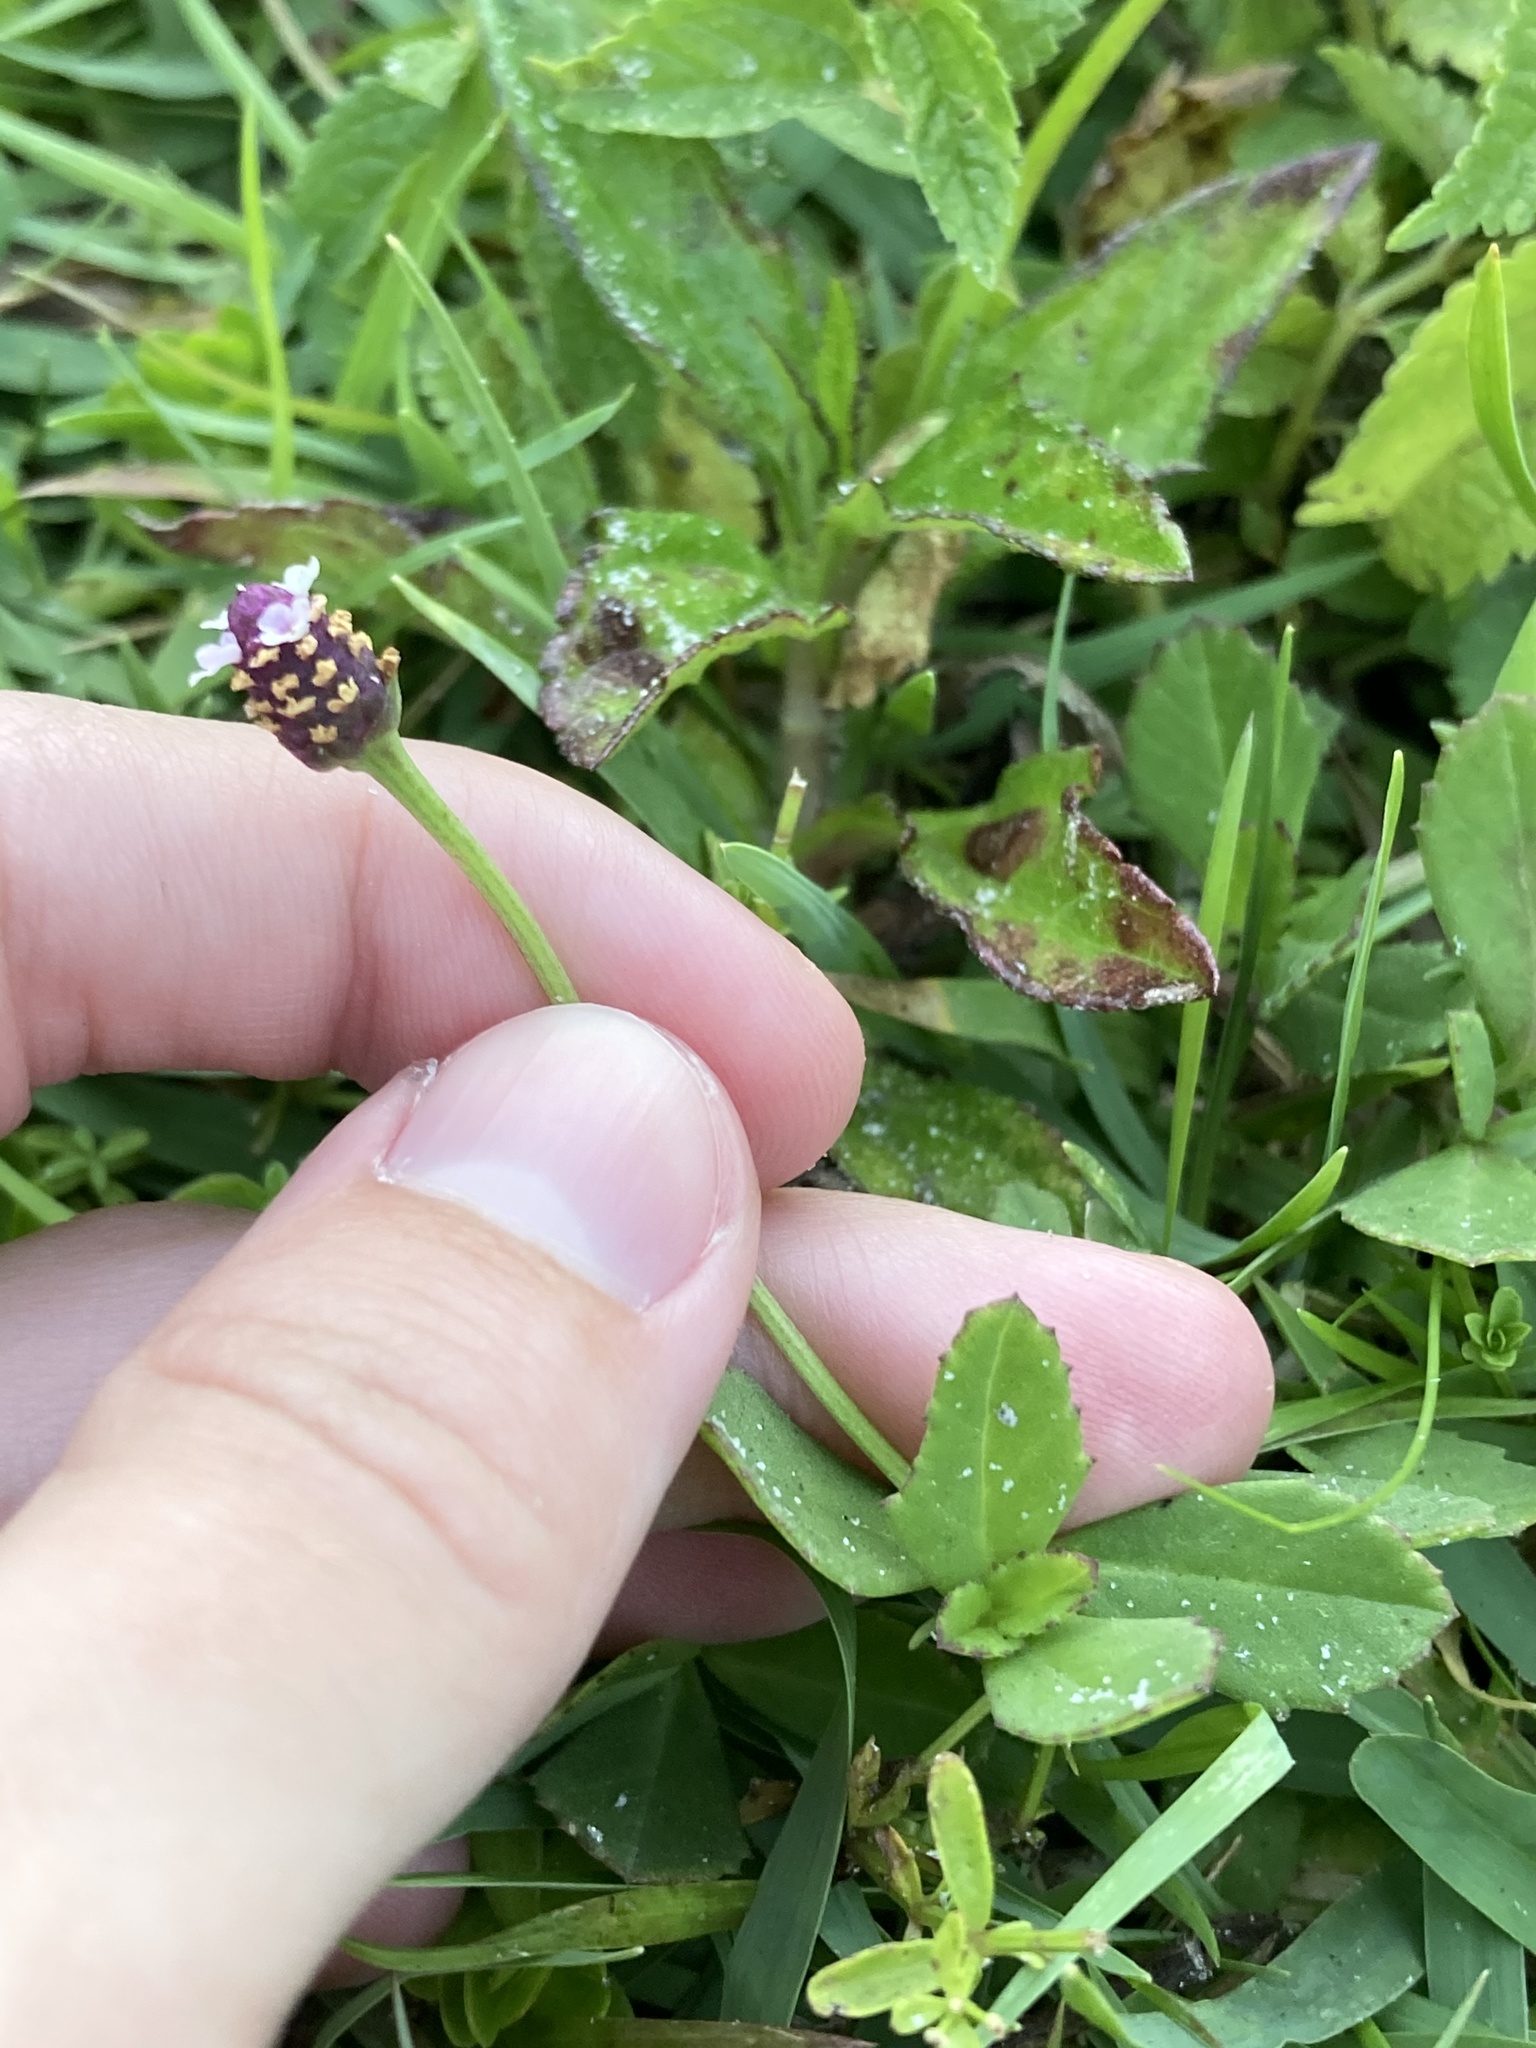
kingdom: Plantae
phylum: Tracheophyta
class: Magnoliopsida
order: Lamiales
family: Verbenaceae
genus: Phyla
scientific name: Phyla nodiflora
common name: Frogfruit
